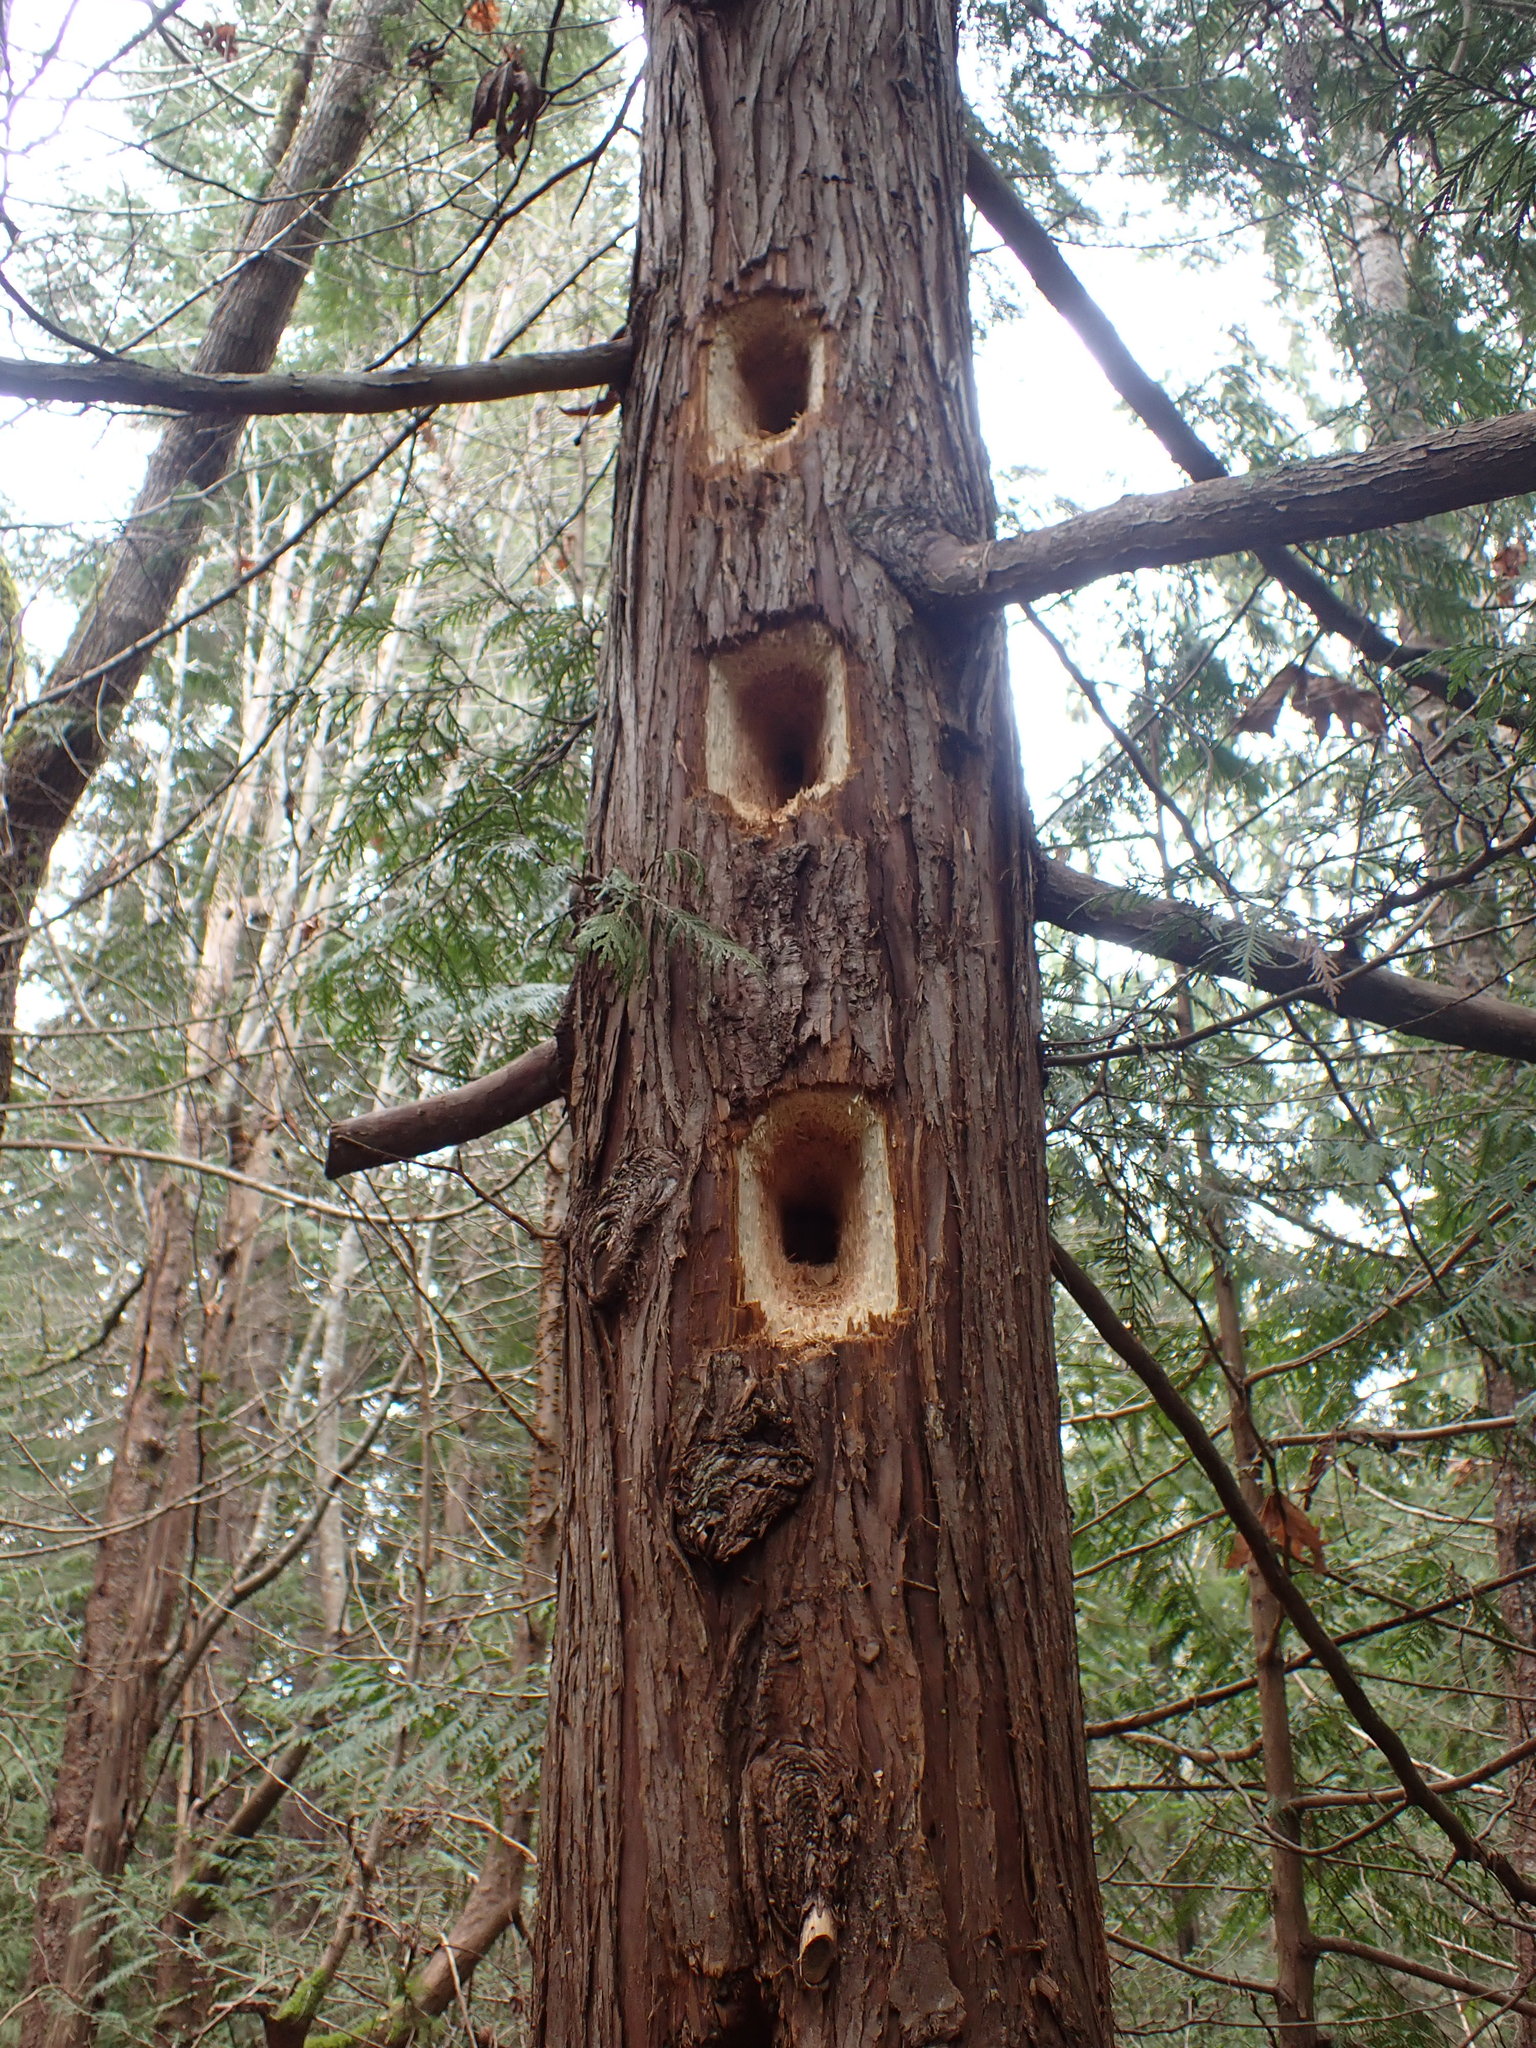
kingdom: Animalia
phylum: Chordata
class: Aves
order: Piciformes
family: Picidae
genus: Dryocopus
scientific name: Dryocopus pileatus
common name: Pileated woodpecker
